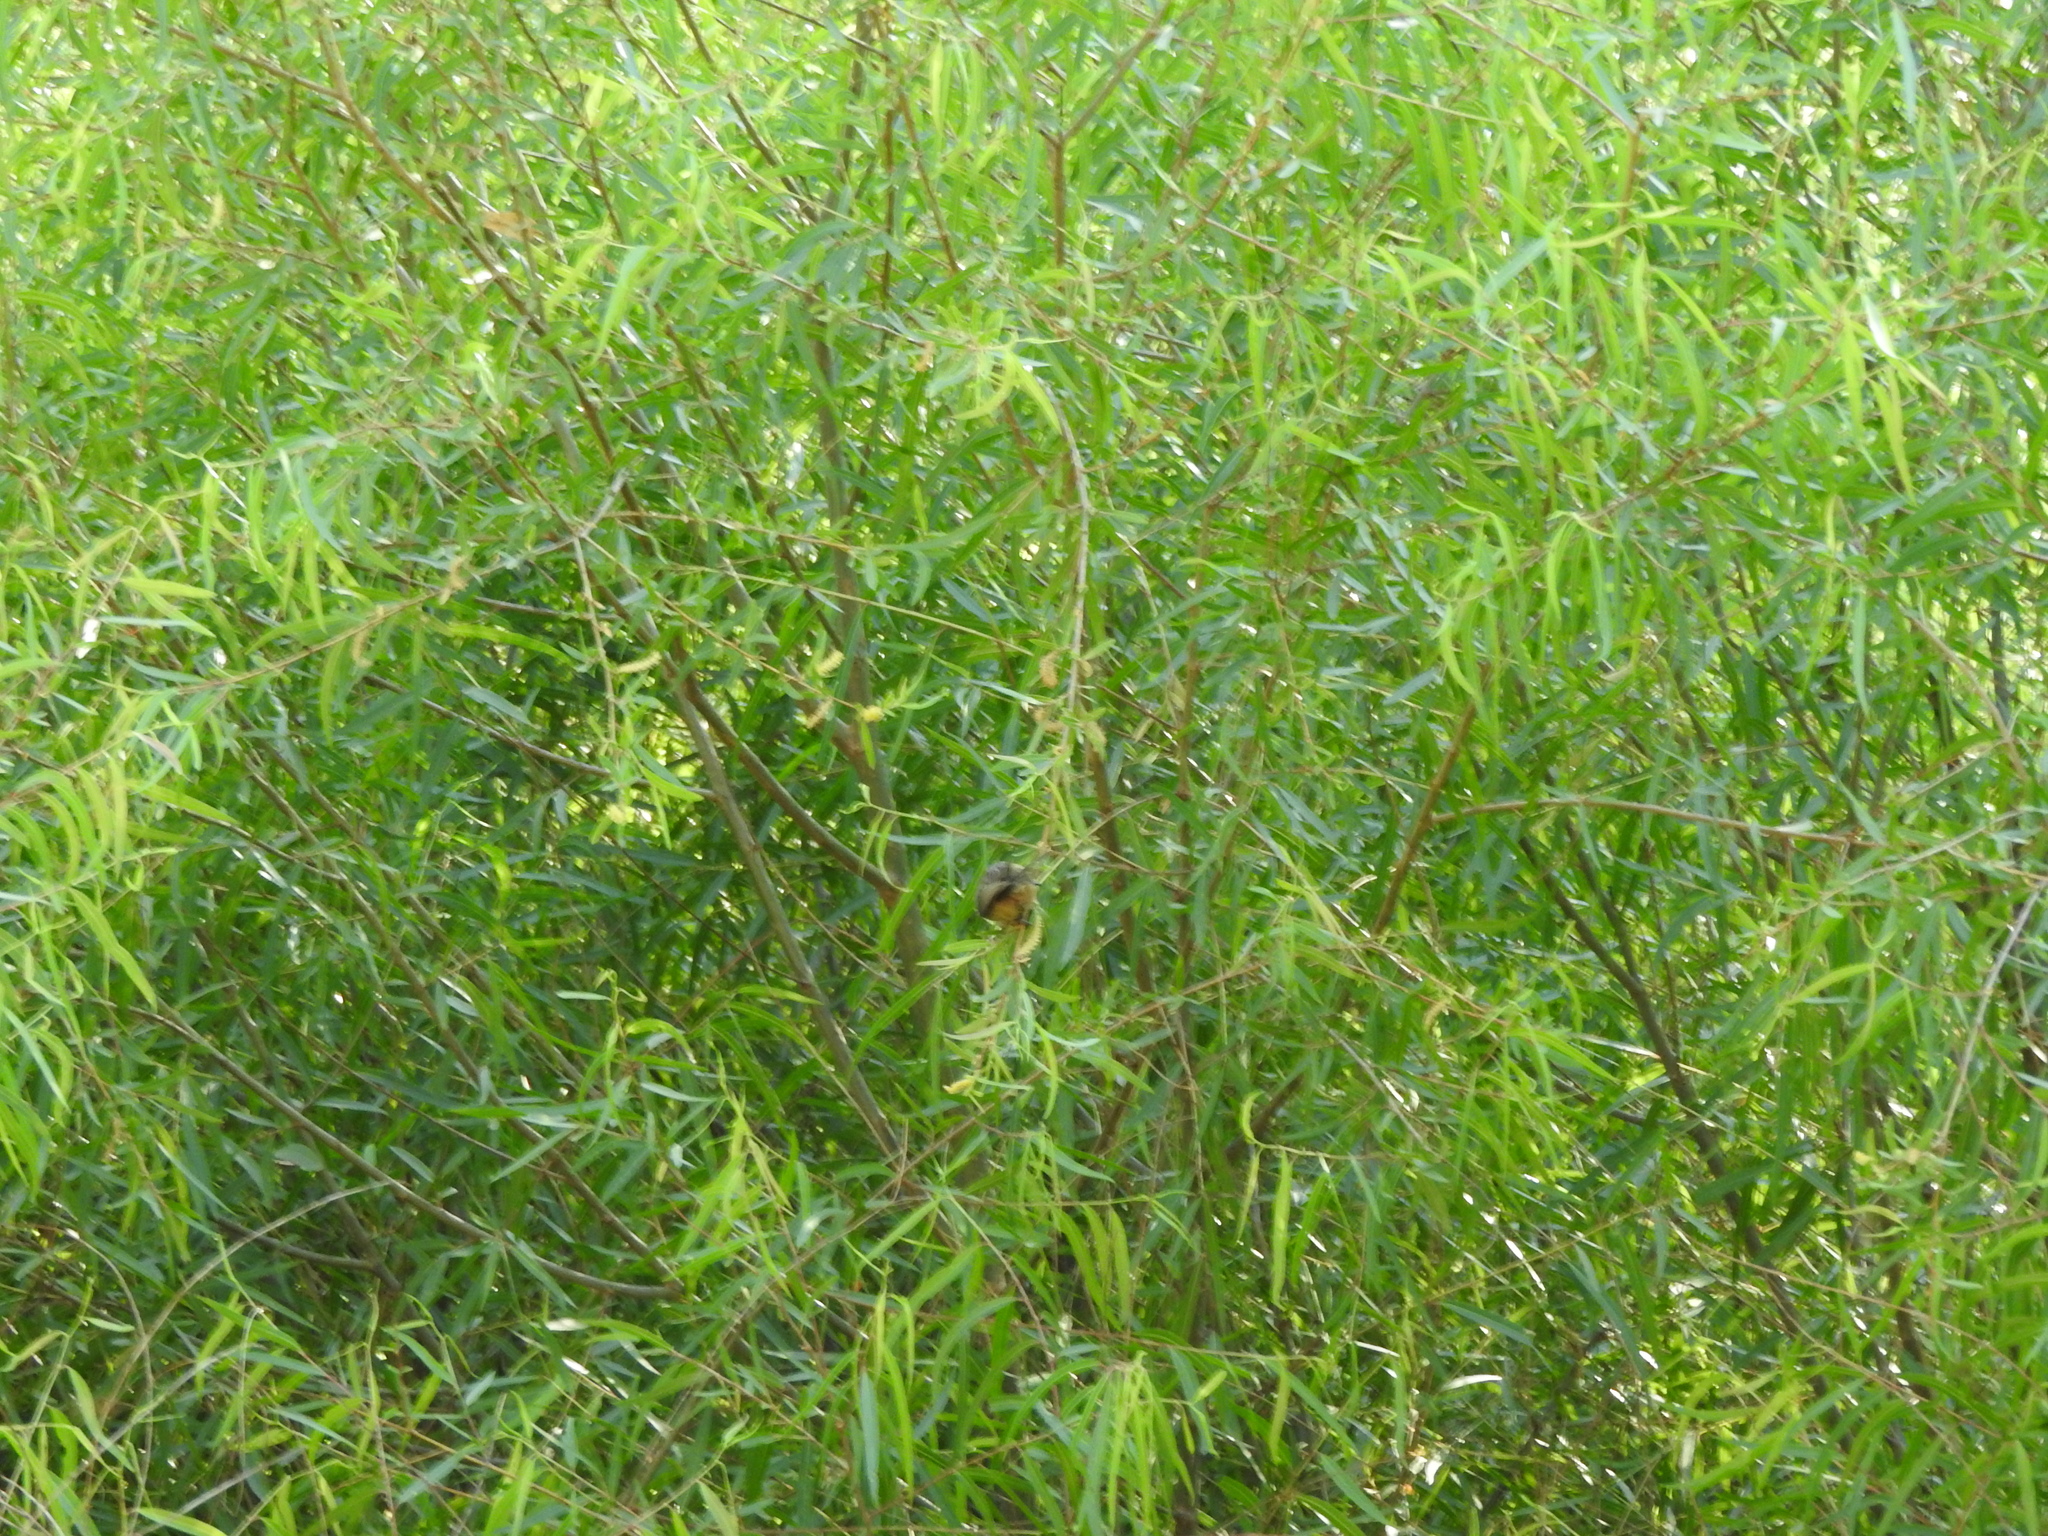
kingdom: Plantae
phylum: Tracheophyta
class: Magnoliopsida
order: Malpighiales
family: Salicaceae
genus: Salix
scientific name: Salix humboldtiana
